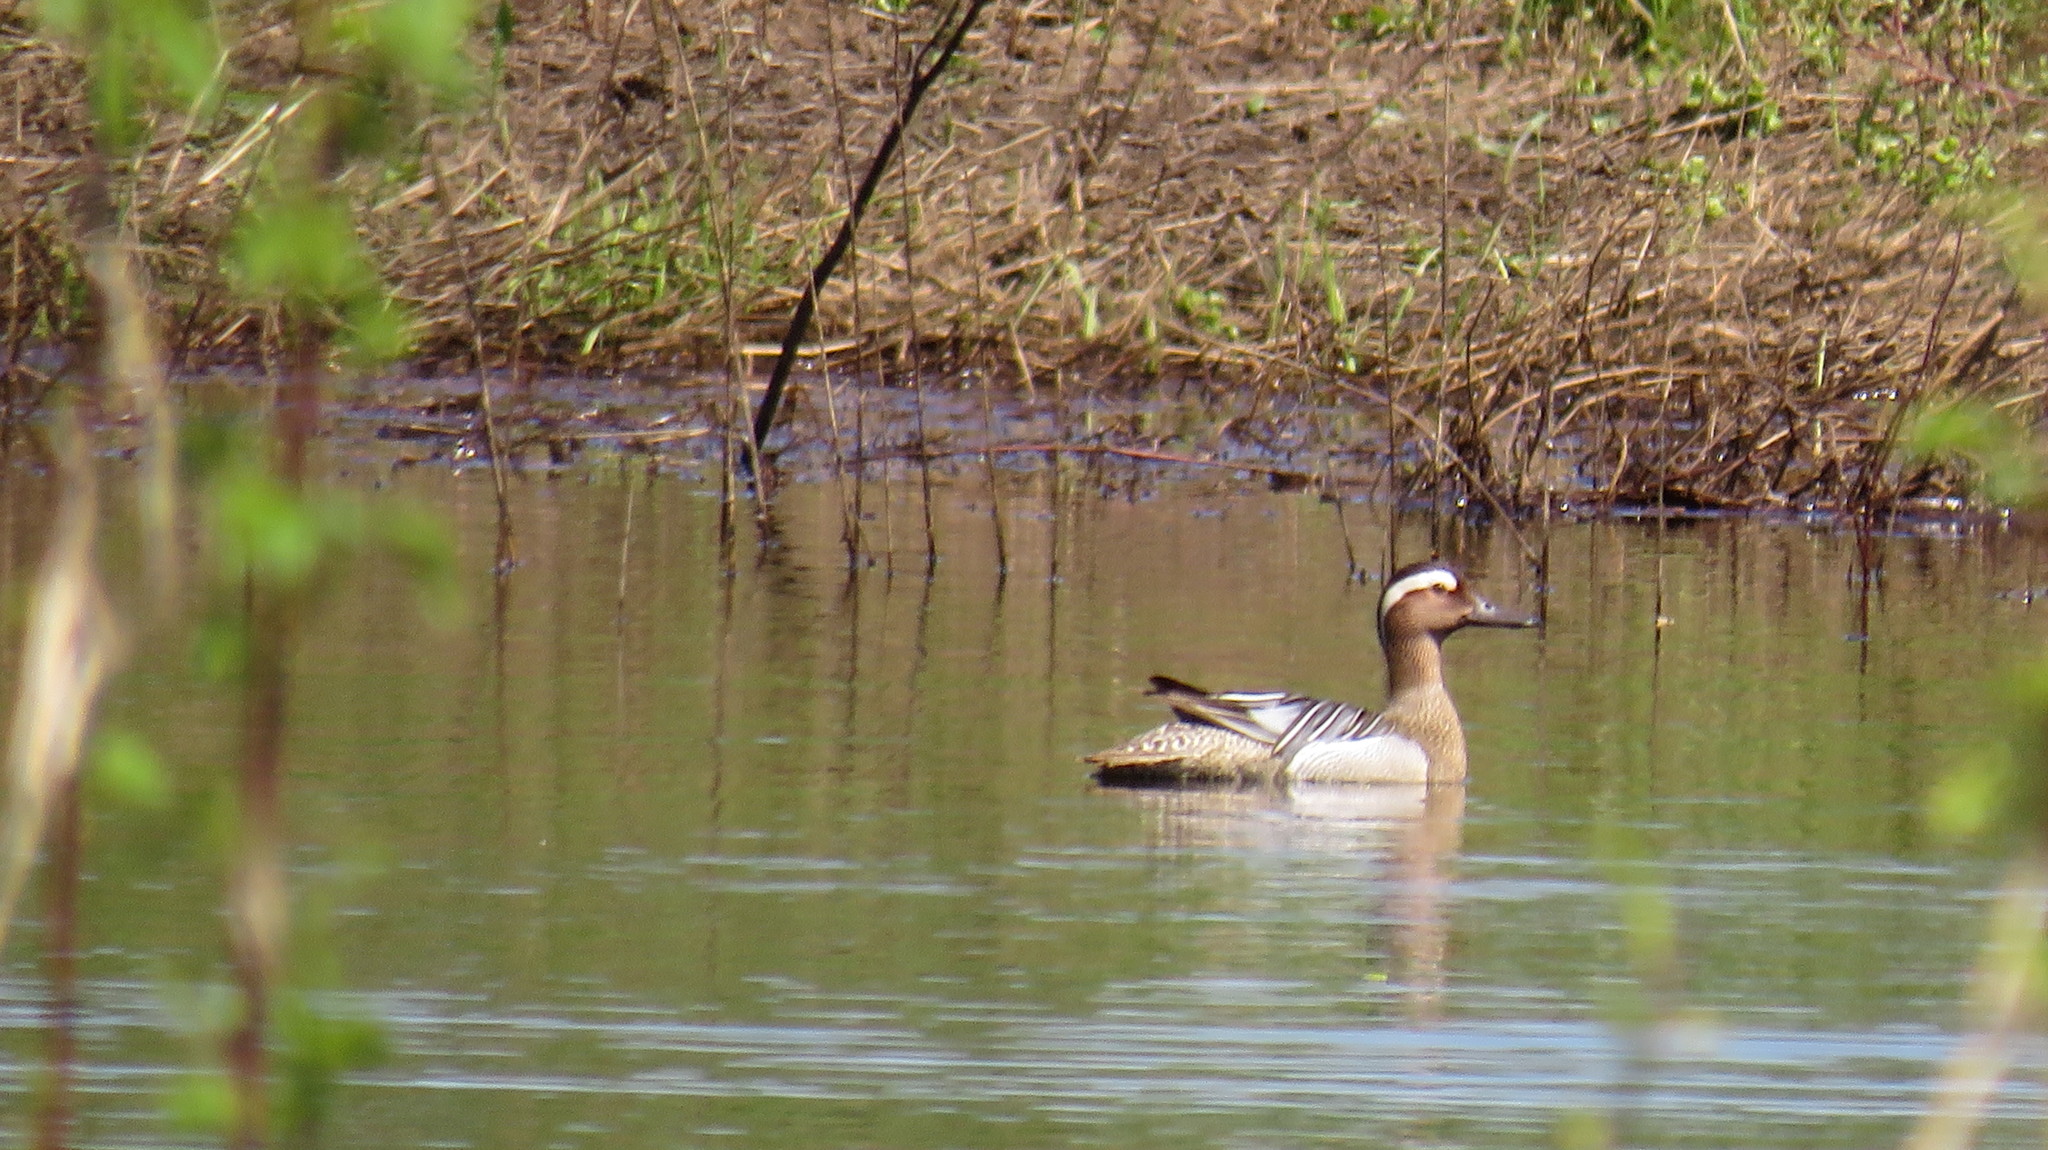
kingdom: Animalia
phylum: Chordata
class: Aves
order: Anseriformes
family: Anatidae
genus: Spatula
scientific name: Spatula querquedula
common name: Garganey
